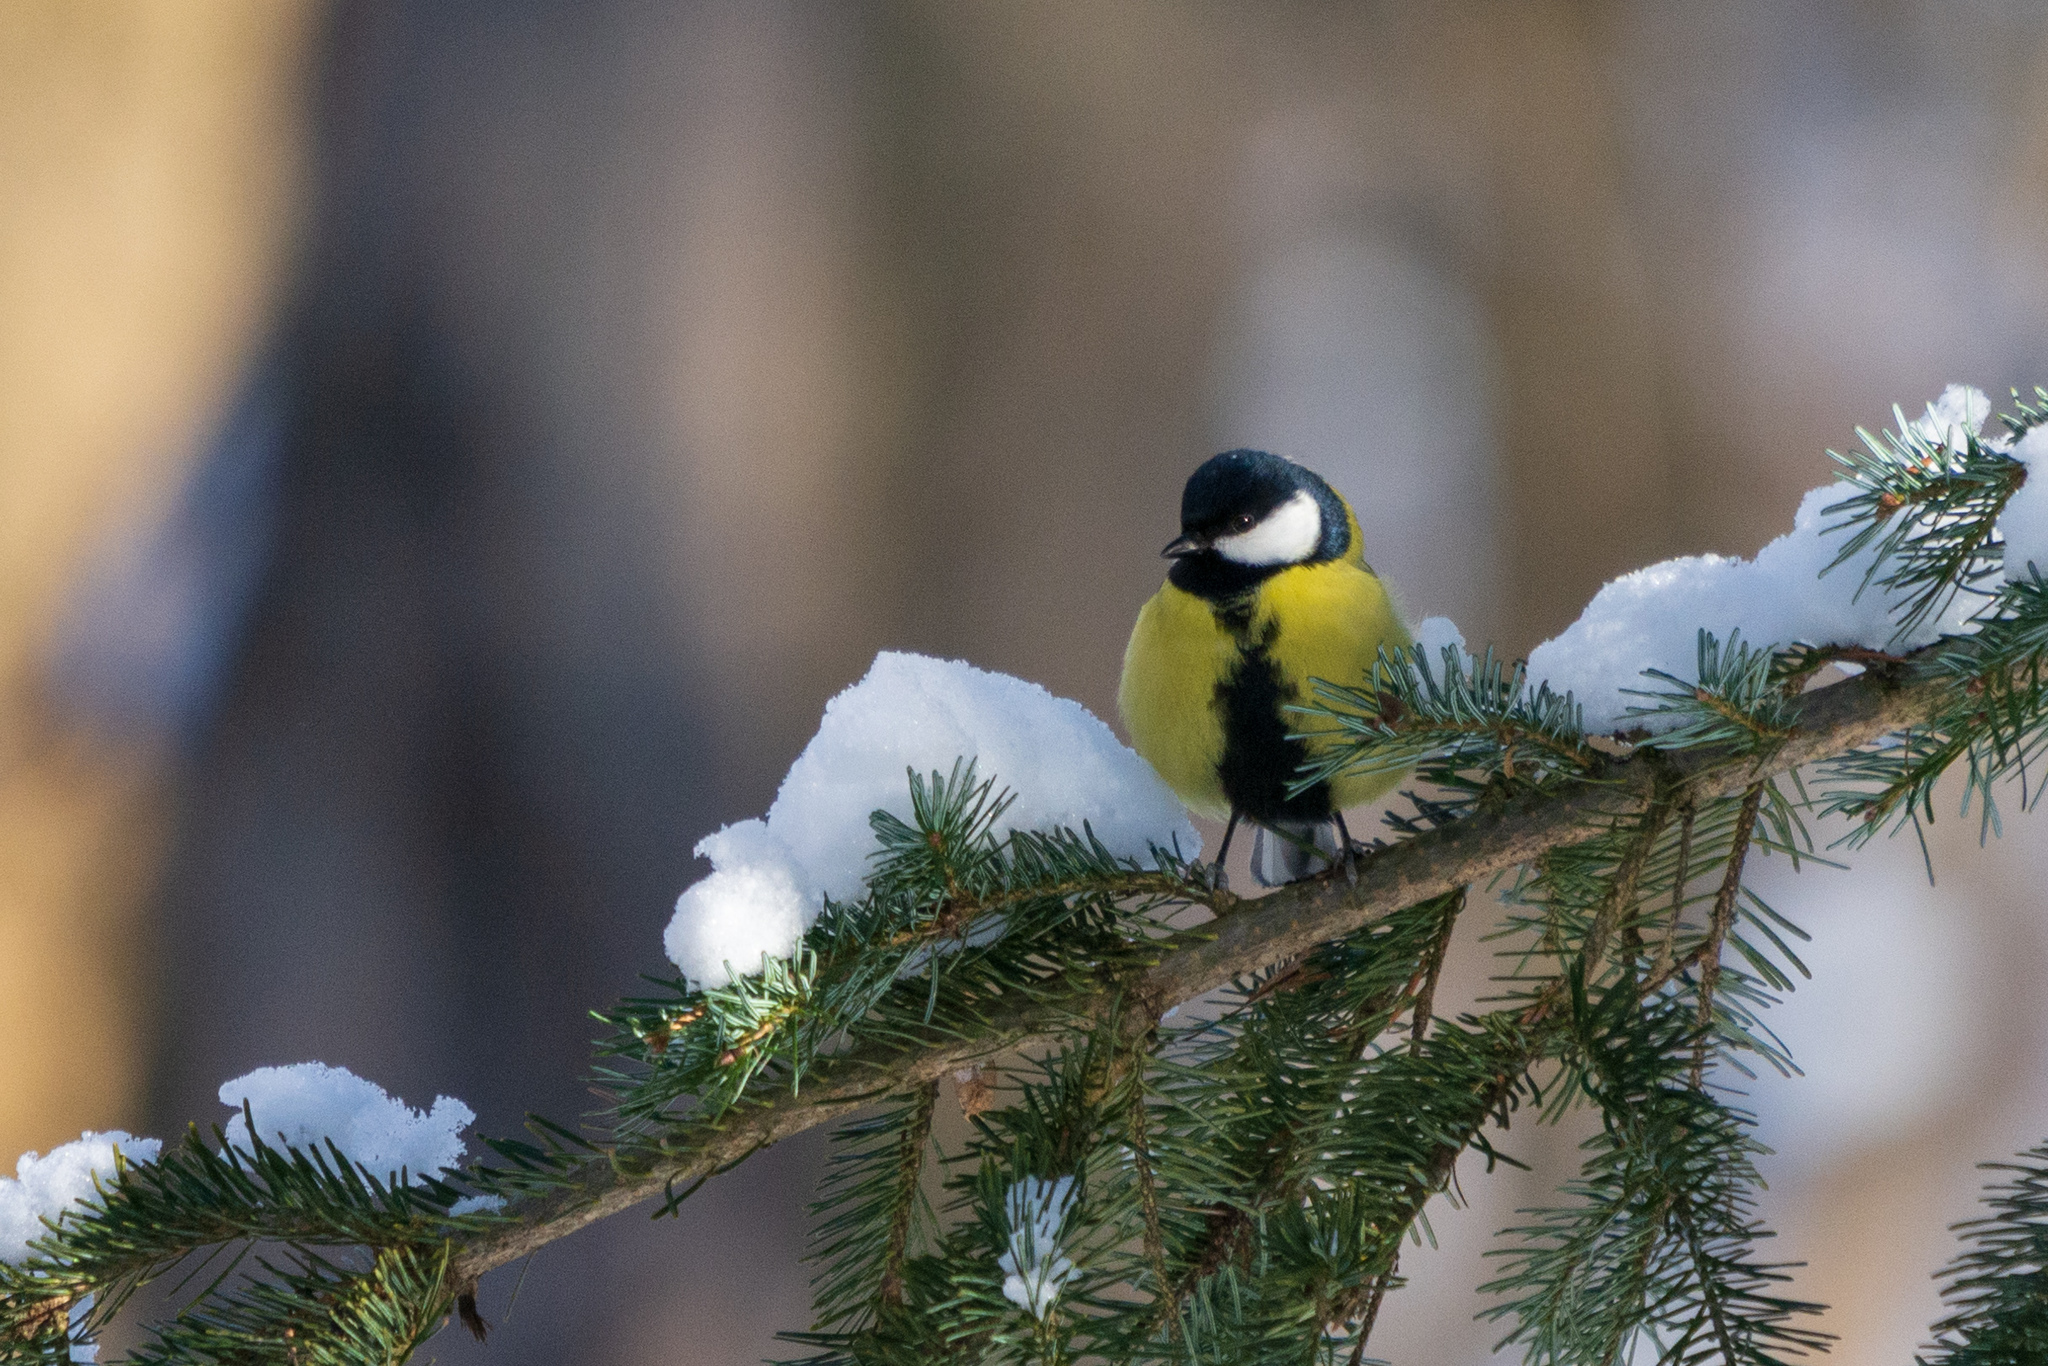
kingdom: Animalia
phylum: Chordata
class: Aves
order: Passeriformes
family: Paridae
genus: Parus
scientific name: Parus major
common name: Great tit
